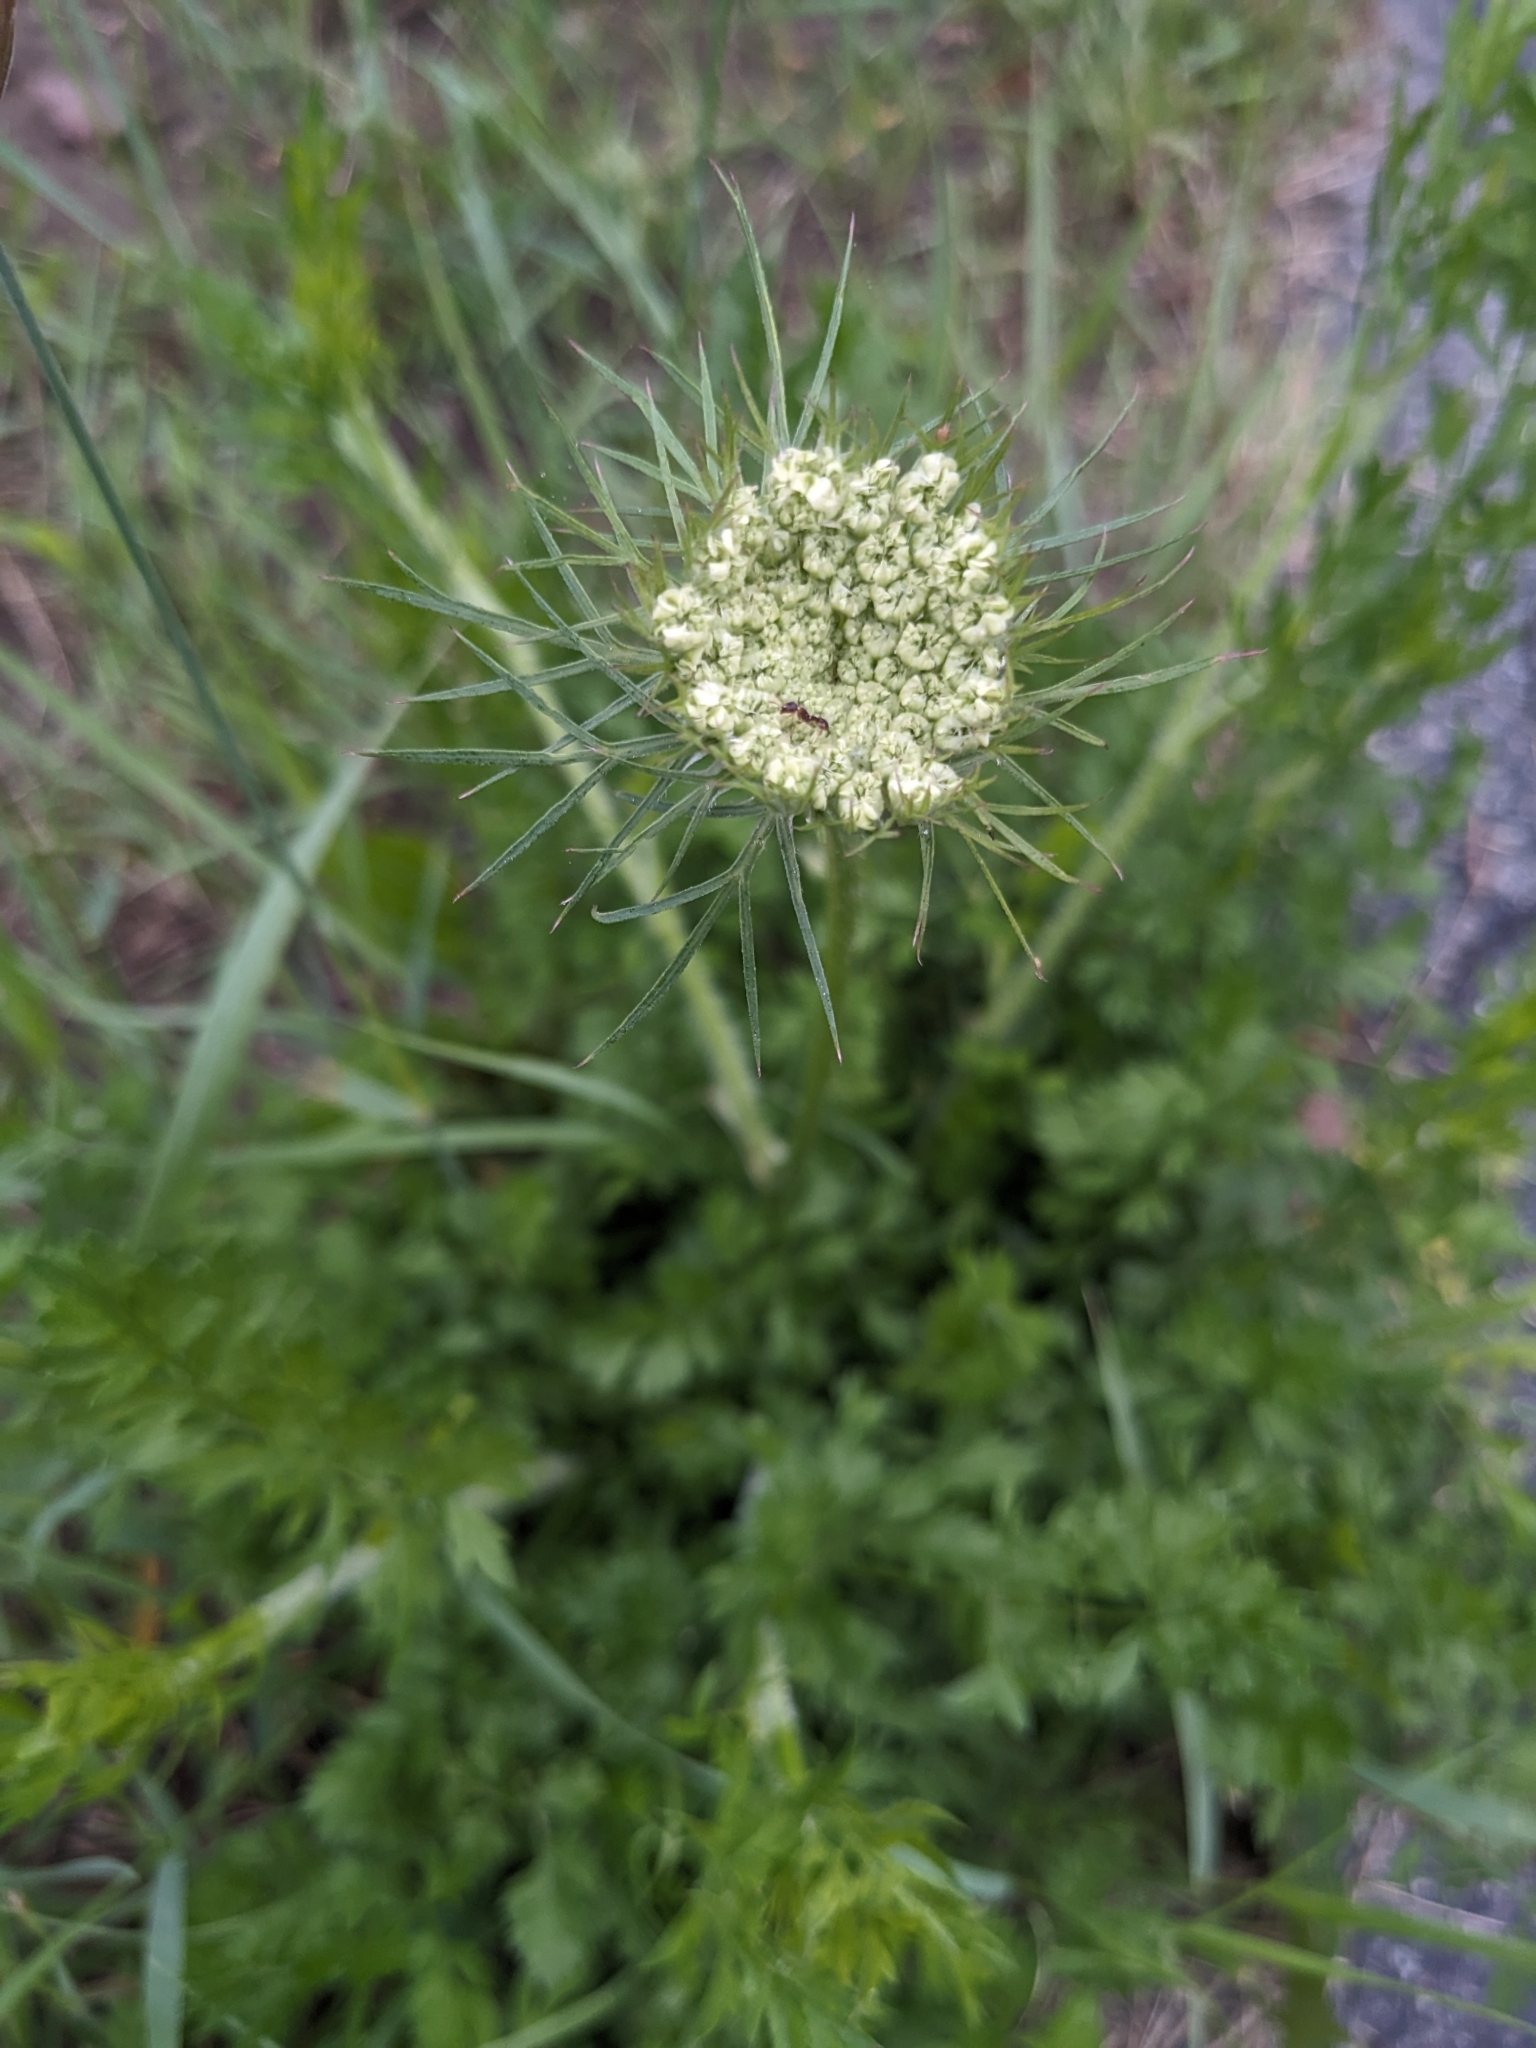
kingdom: Plantae
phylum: Tracheophyta
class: Magnoliopsida
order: Apiales
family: Apiaceae
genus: Daucus
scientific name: Daucus carota
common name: Wild carrot
